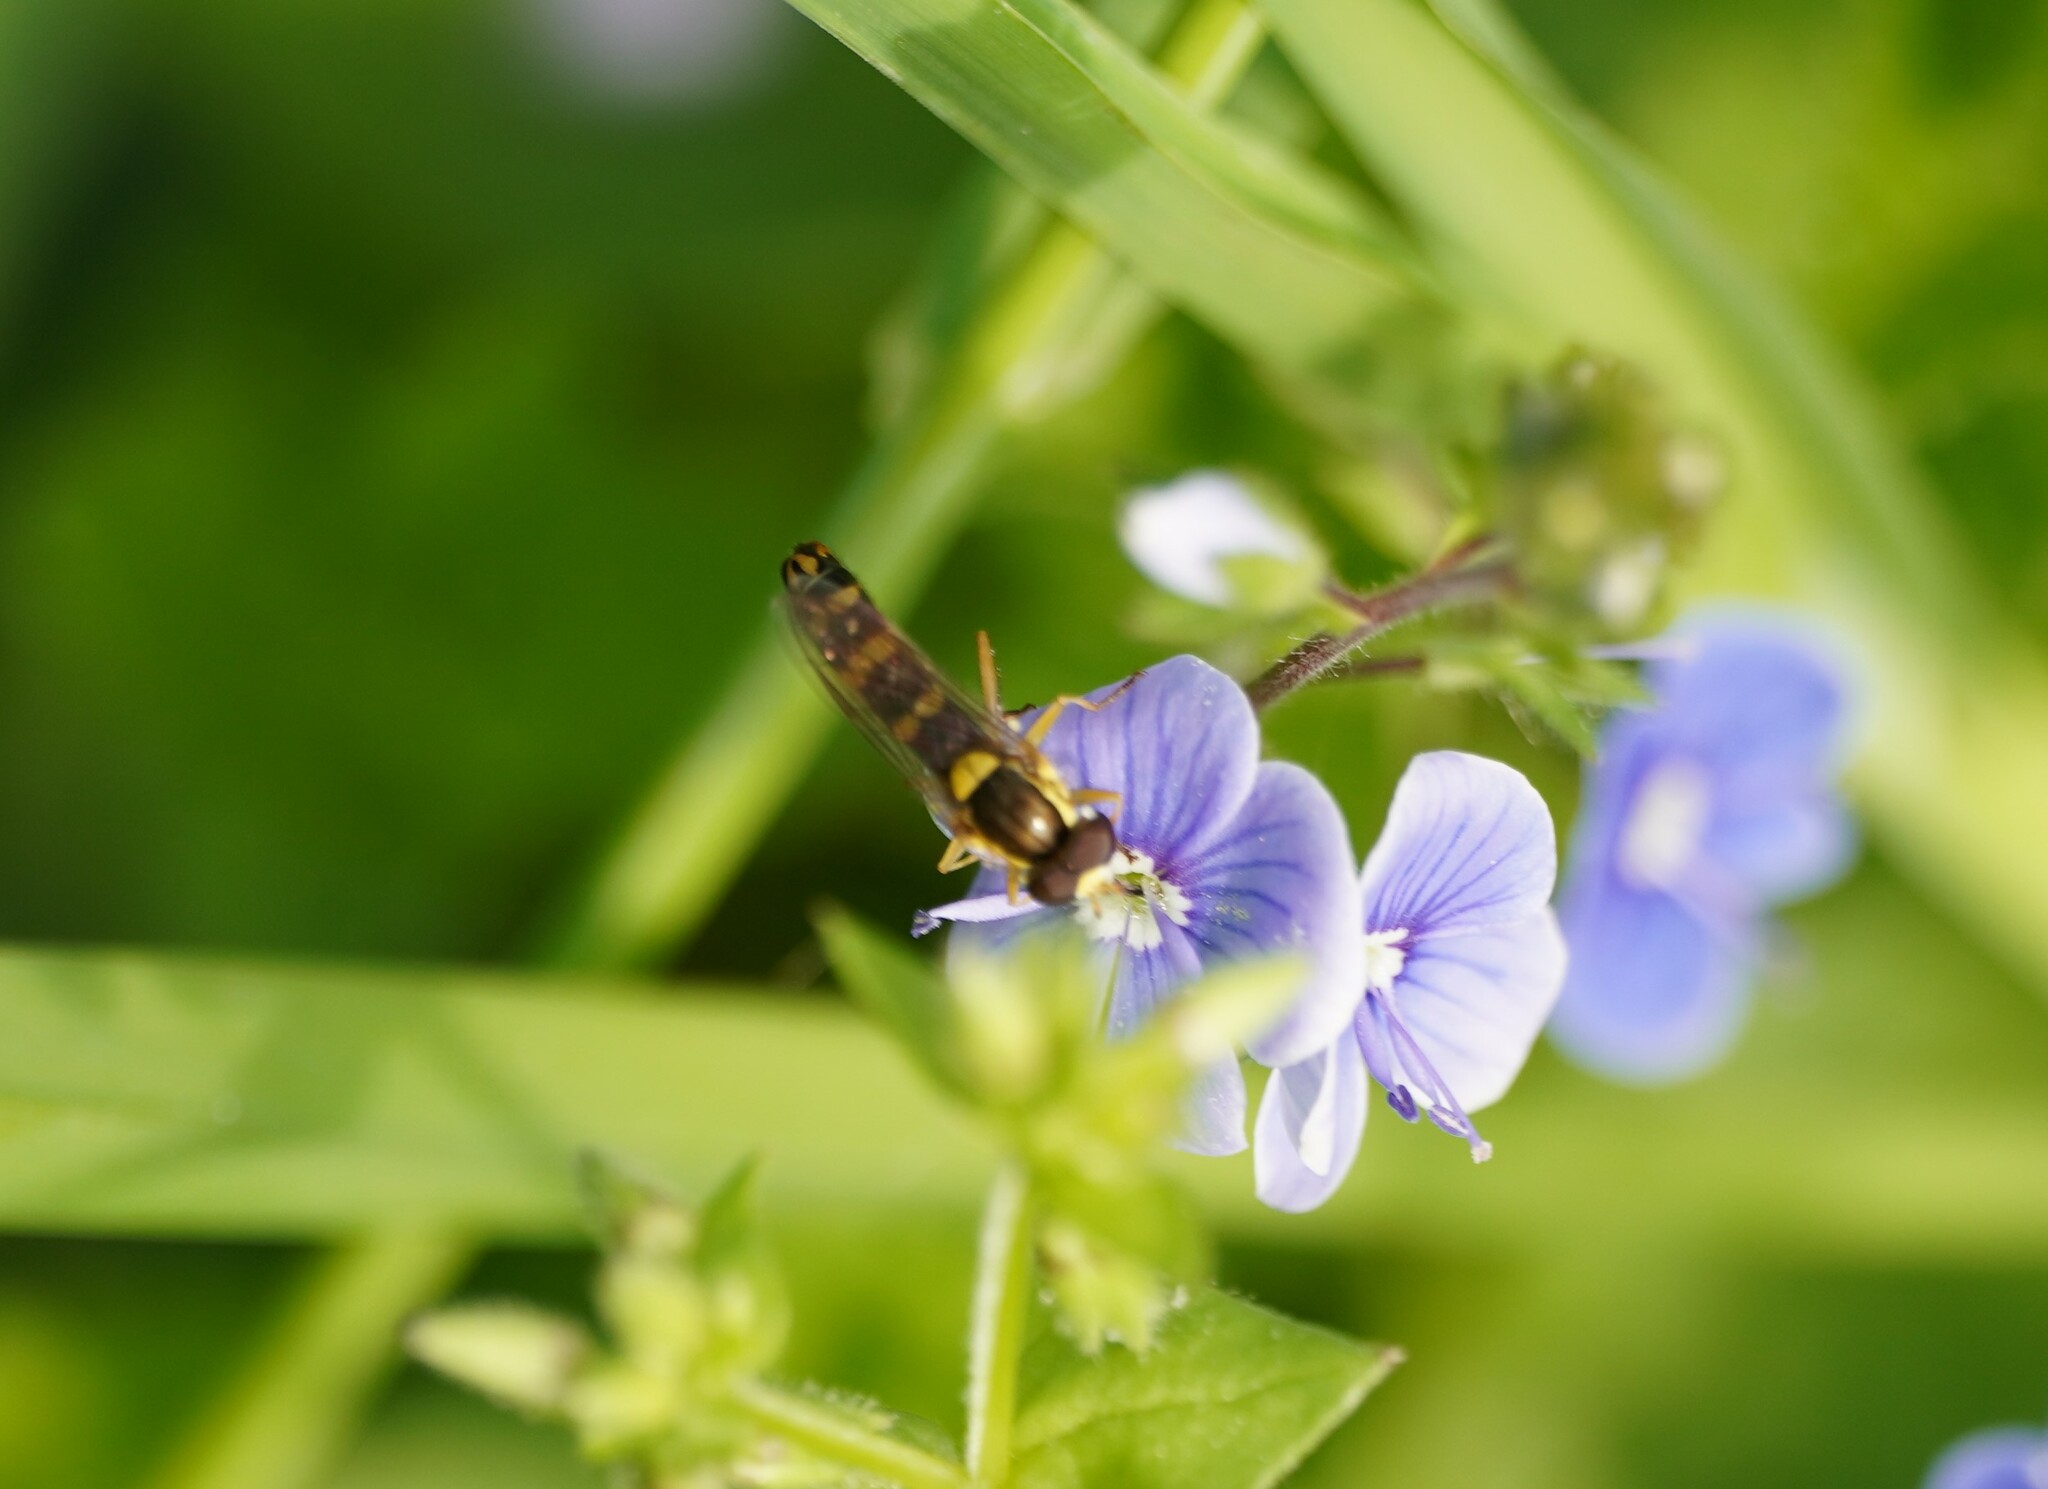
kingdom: Animalia
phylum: Arthropoda
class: Insecta
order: Diptera
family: Syrphidae
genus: Sphaerophoria
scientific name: Sphaerophoria scripta
